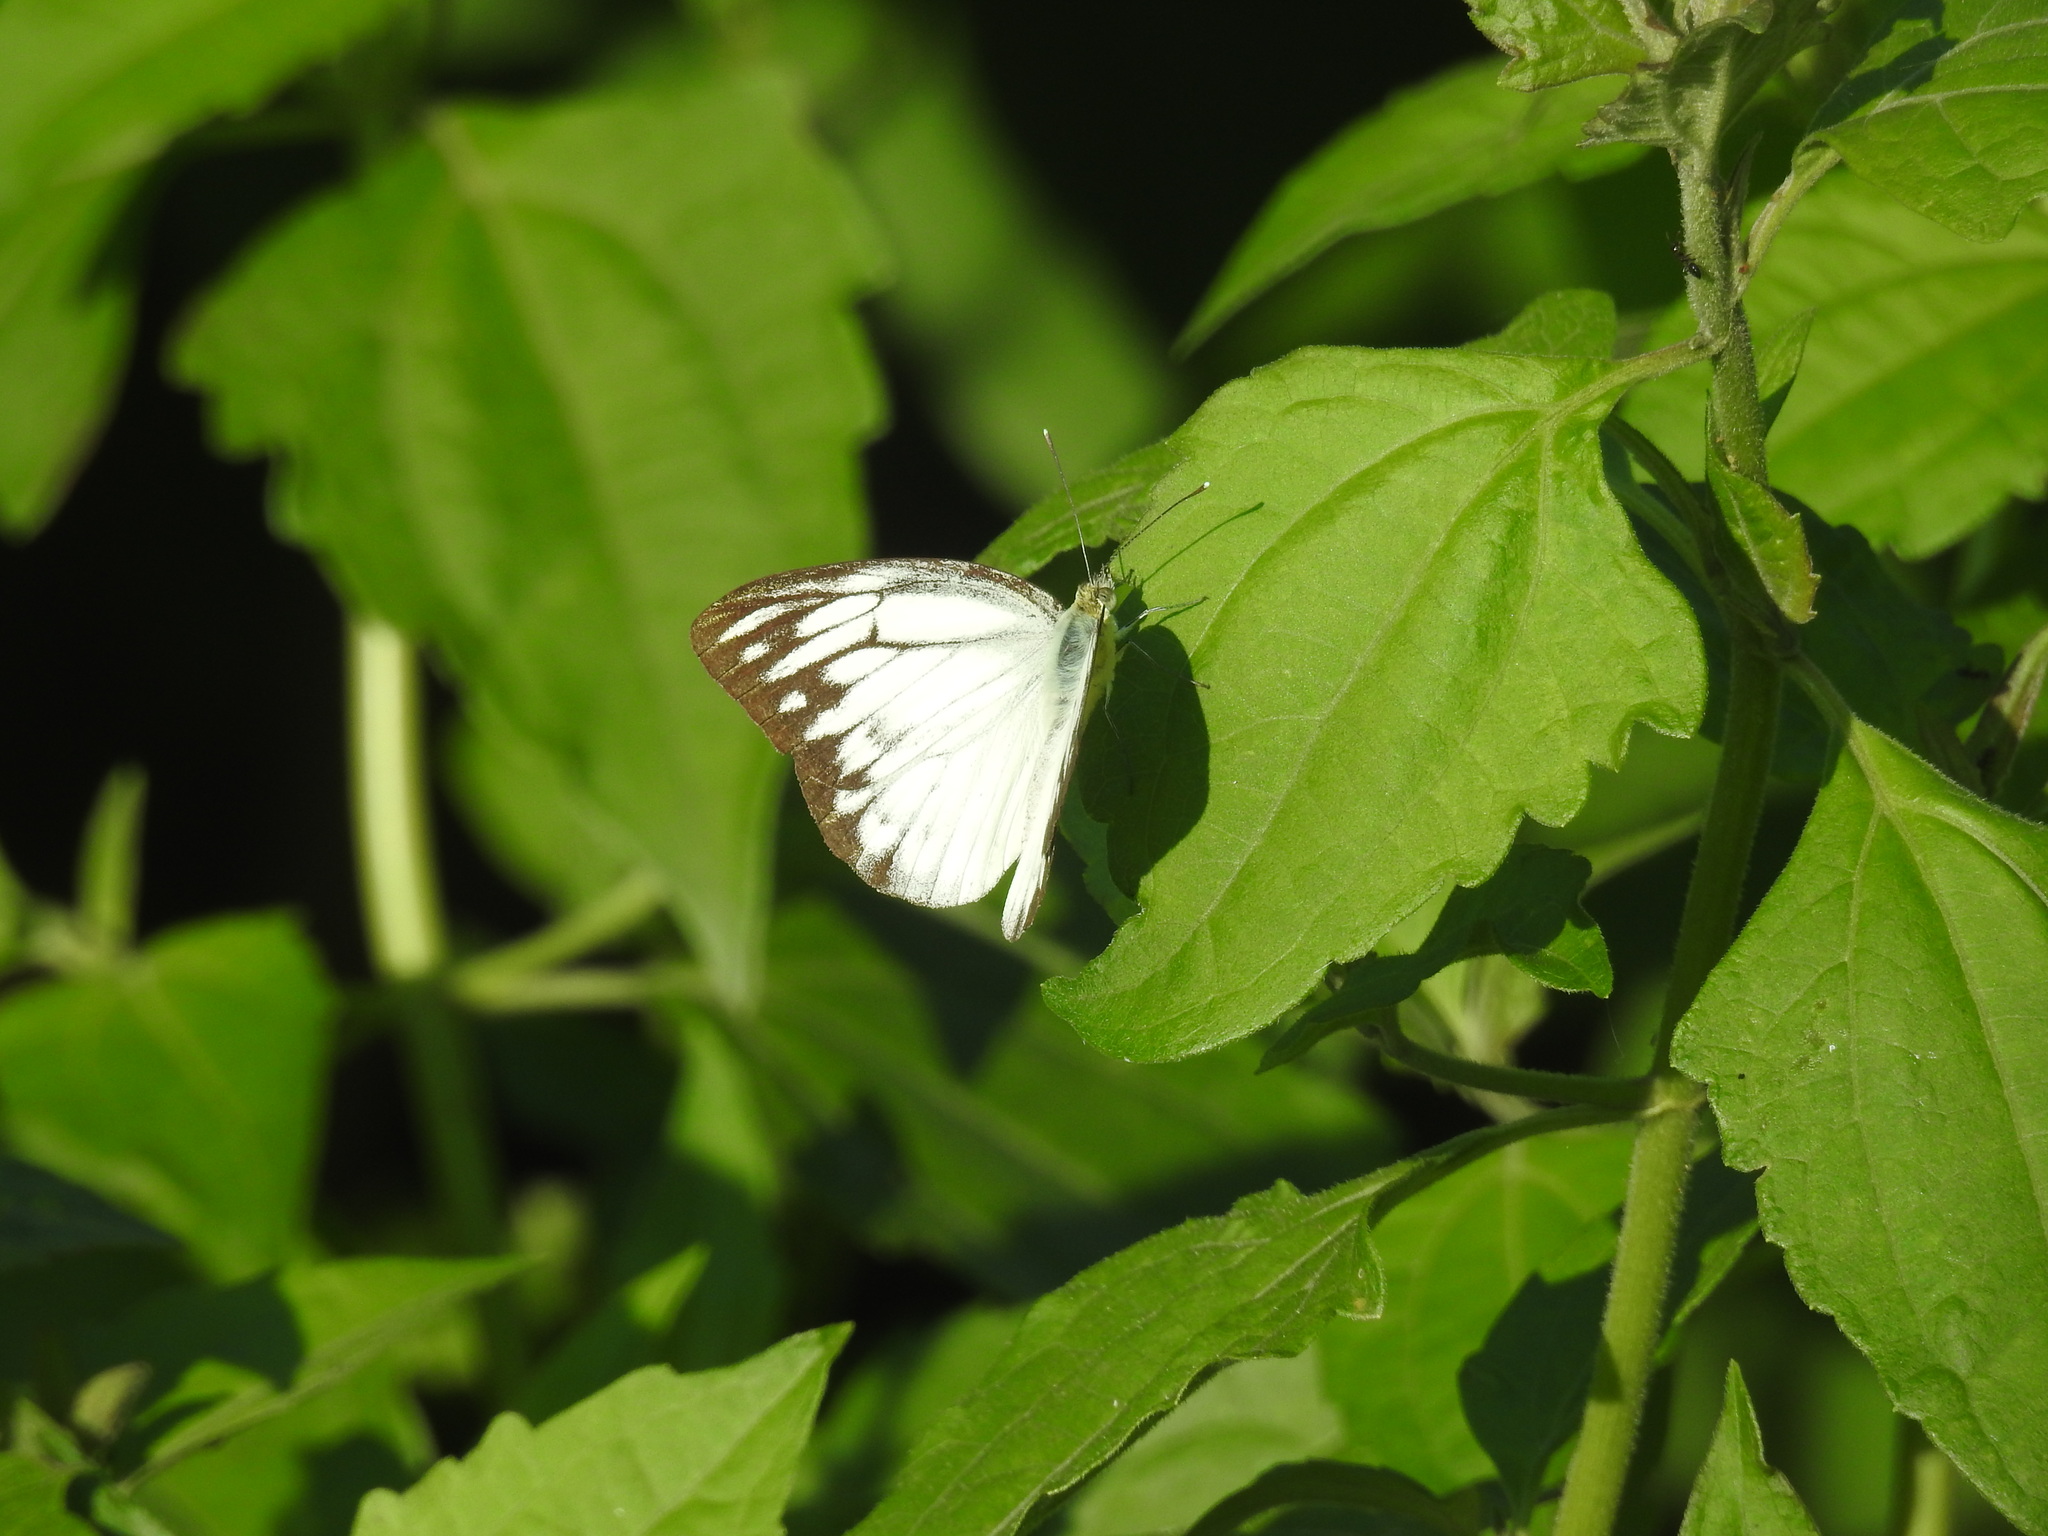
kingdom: Animalia
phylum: Arthropoda
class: Insecta
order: Lepidoptera
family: Pieridae
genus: Cepora
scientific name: Cepora nerissa
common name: Common gull
